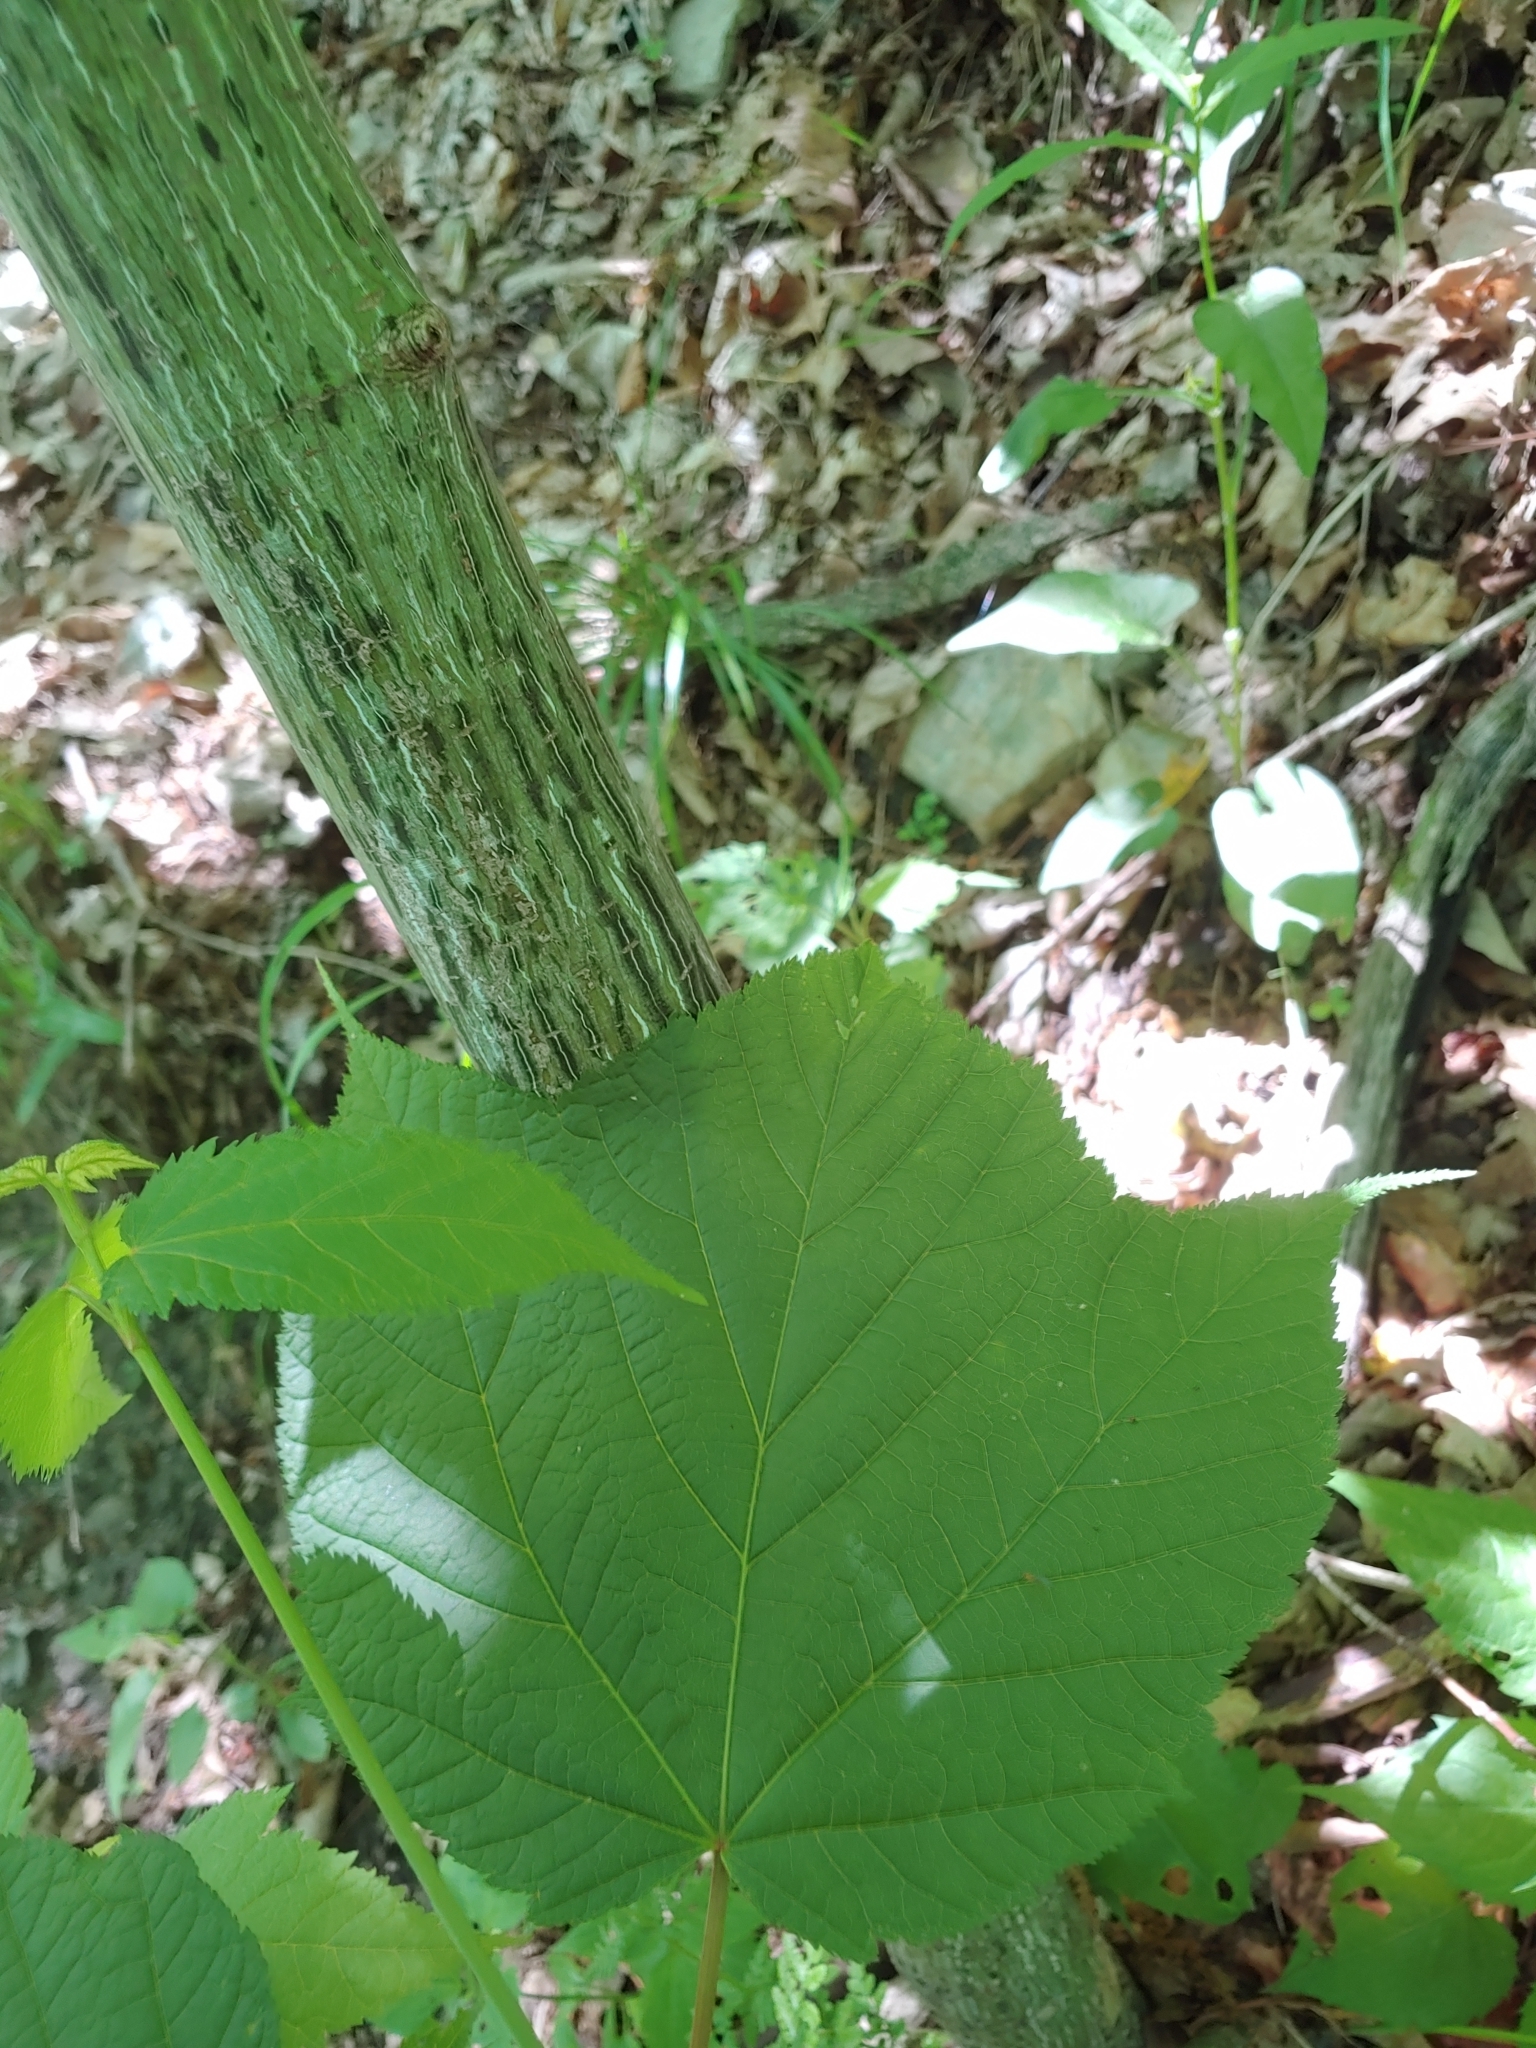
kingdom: Plantae
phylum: Tracheophyta
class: Magnoliopsida
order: Sapindales
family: Sapindaceae
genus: Acer
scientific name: Acer pensylvanicum
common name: Moosewood
